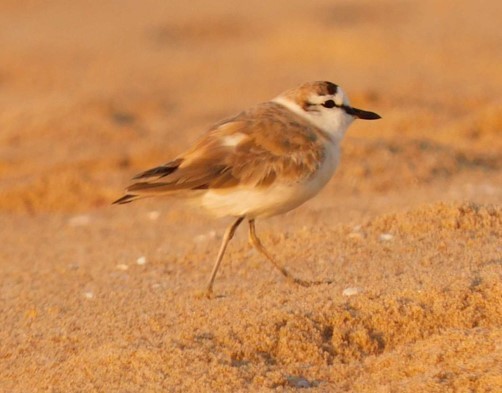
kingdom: Animalia
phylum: Chordata
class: Aves
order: Charadriiformes
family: Charadriidae
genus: Anarhynchus
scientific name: Anarhynchus
